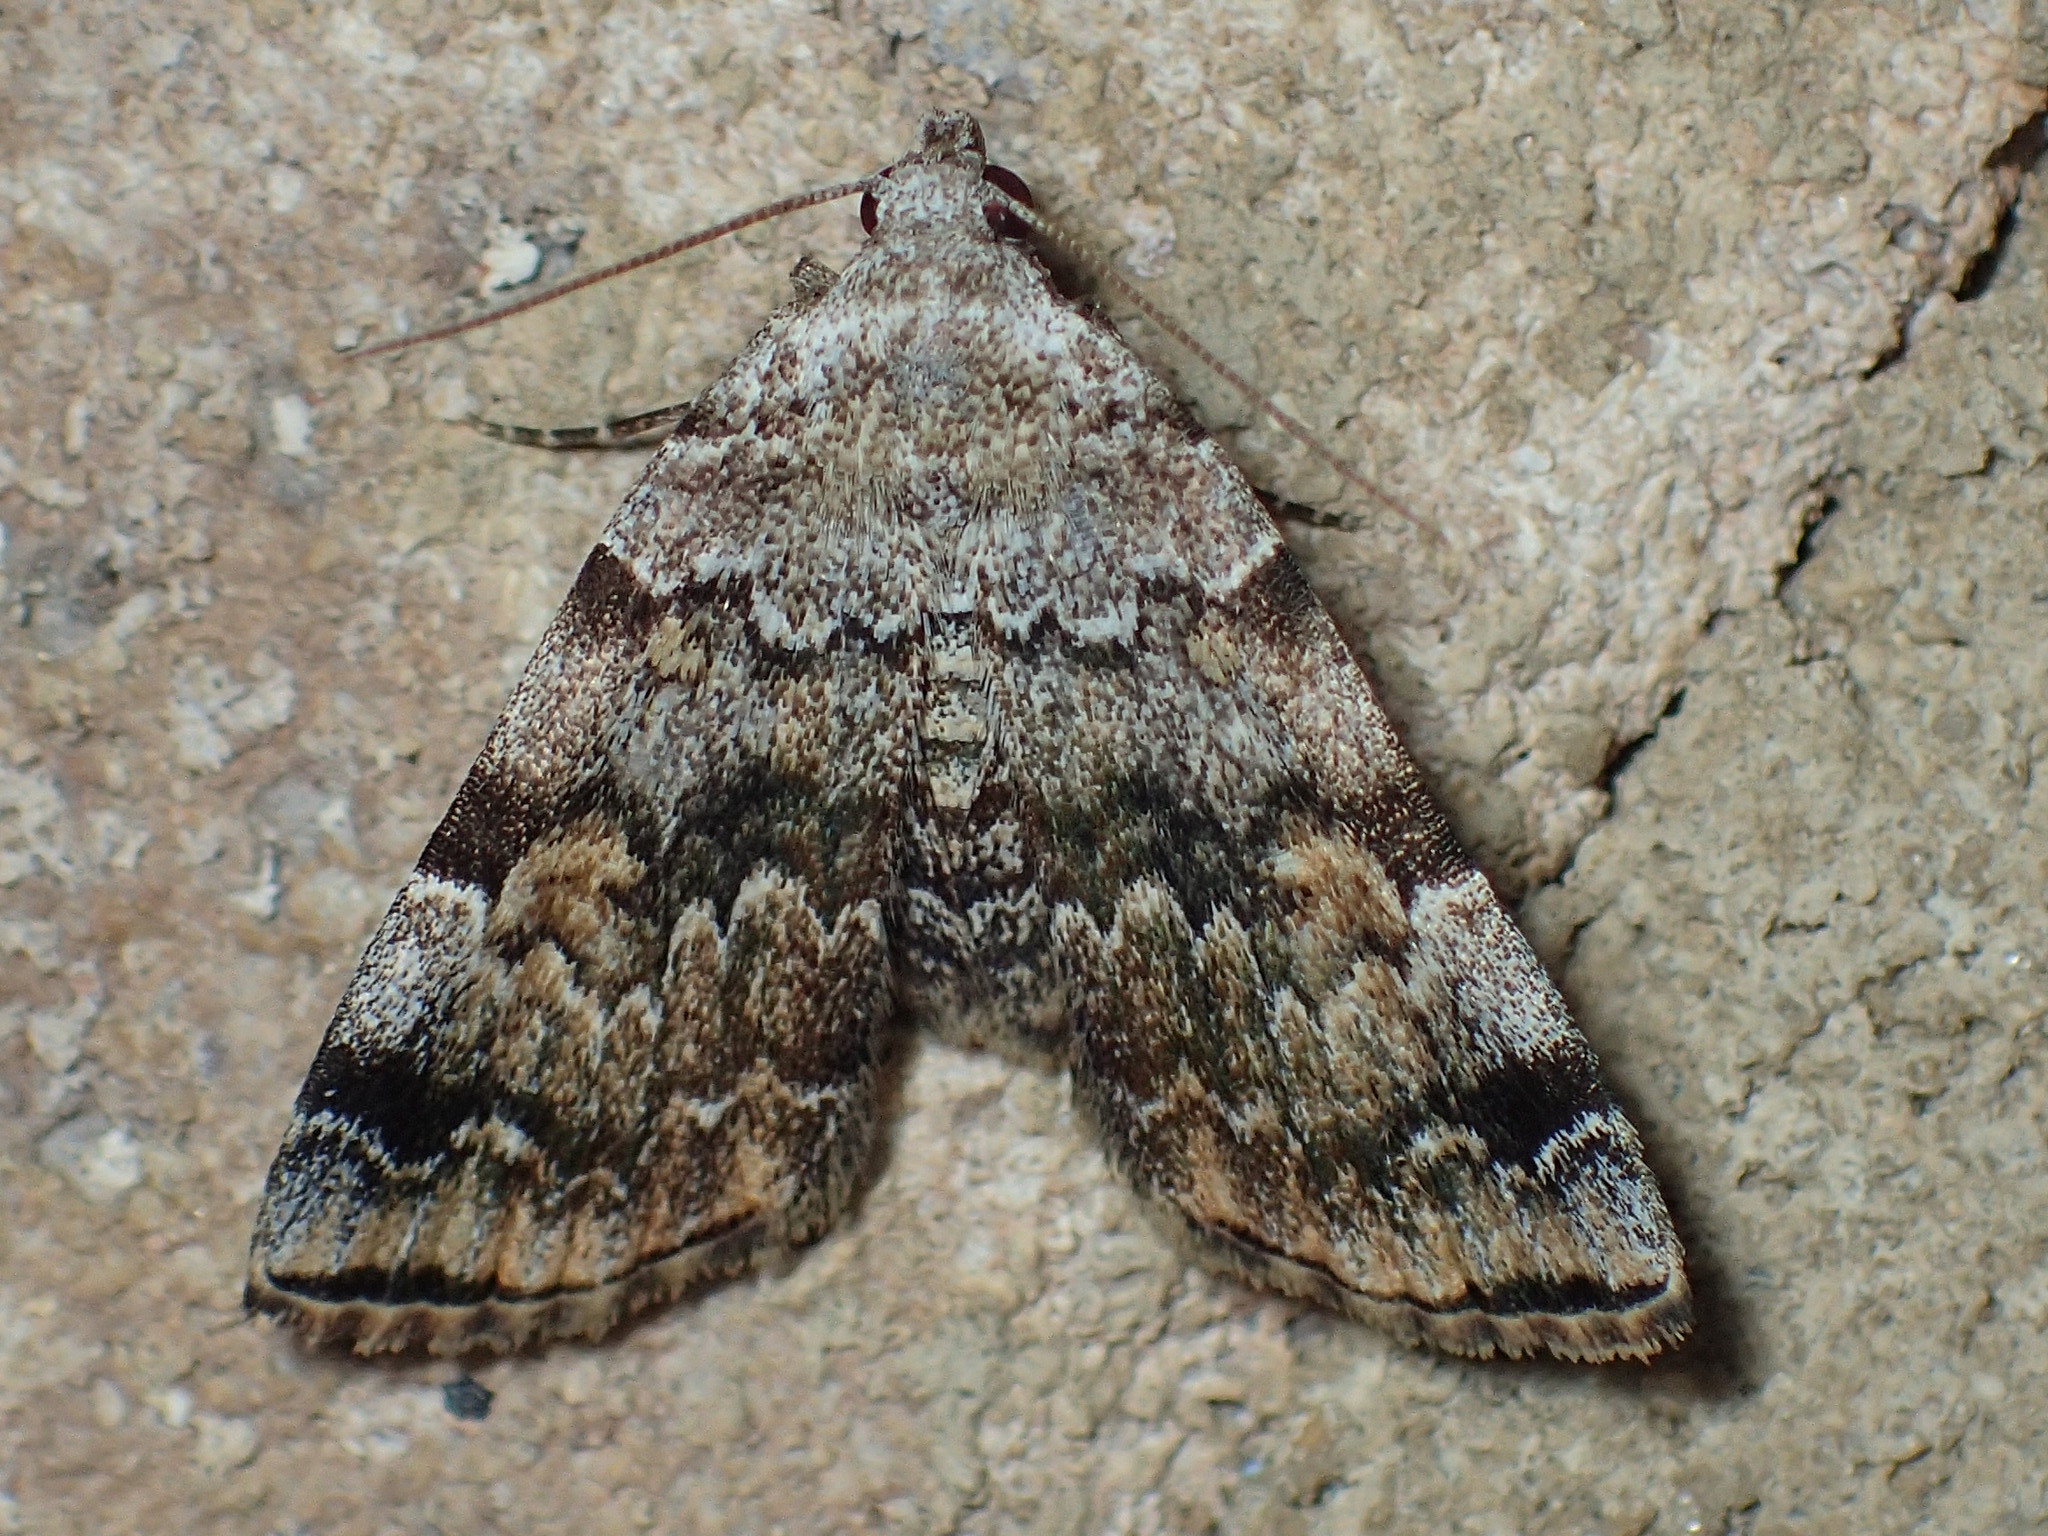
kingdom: Animalia
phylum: Arthropoda
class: Insecta
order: Lepidoptera
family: Erebidae
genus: Idia
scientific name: Idia americalis
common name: American idia moth
